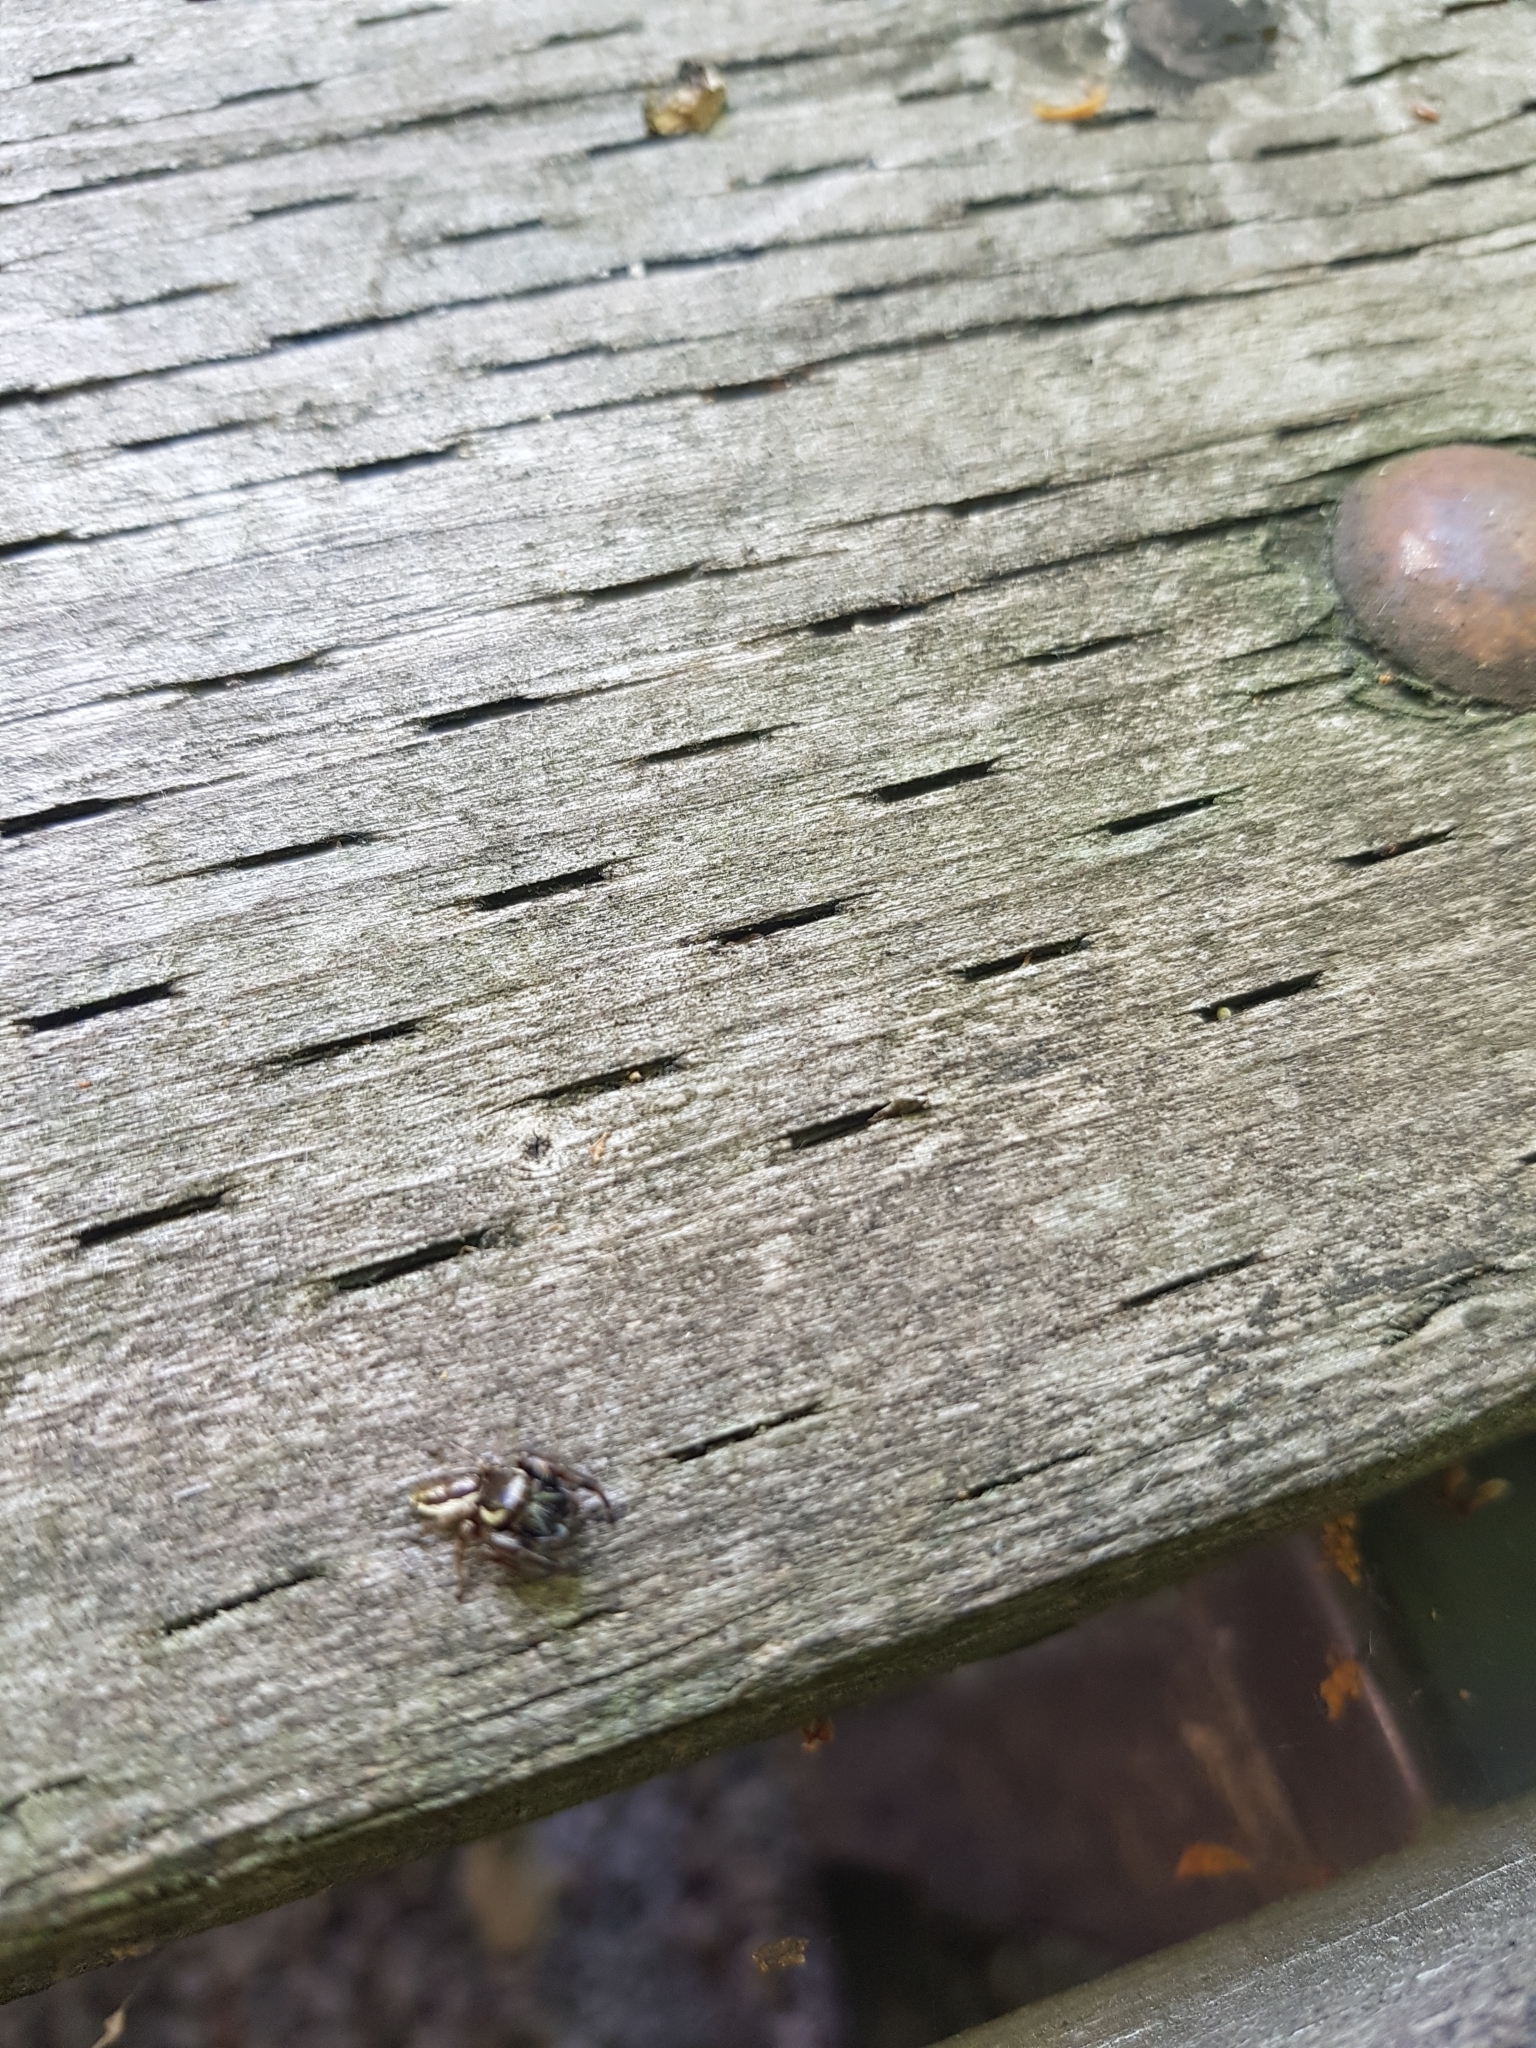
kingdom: Animalia
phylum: Arthropoda
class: Arachnida
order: Araneae
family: Salticidae
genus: Eris
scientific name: Eris militaris
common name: Bronze jumper
